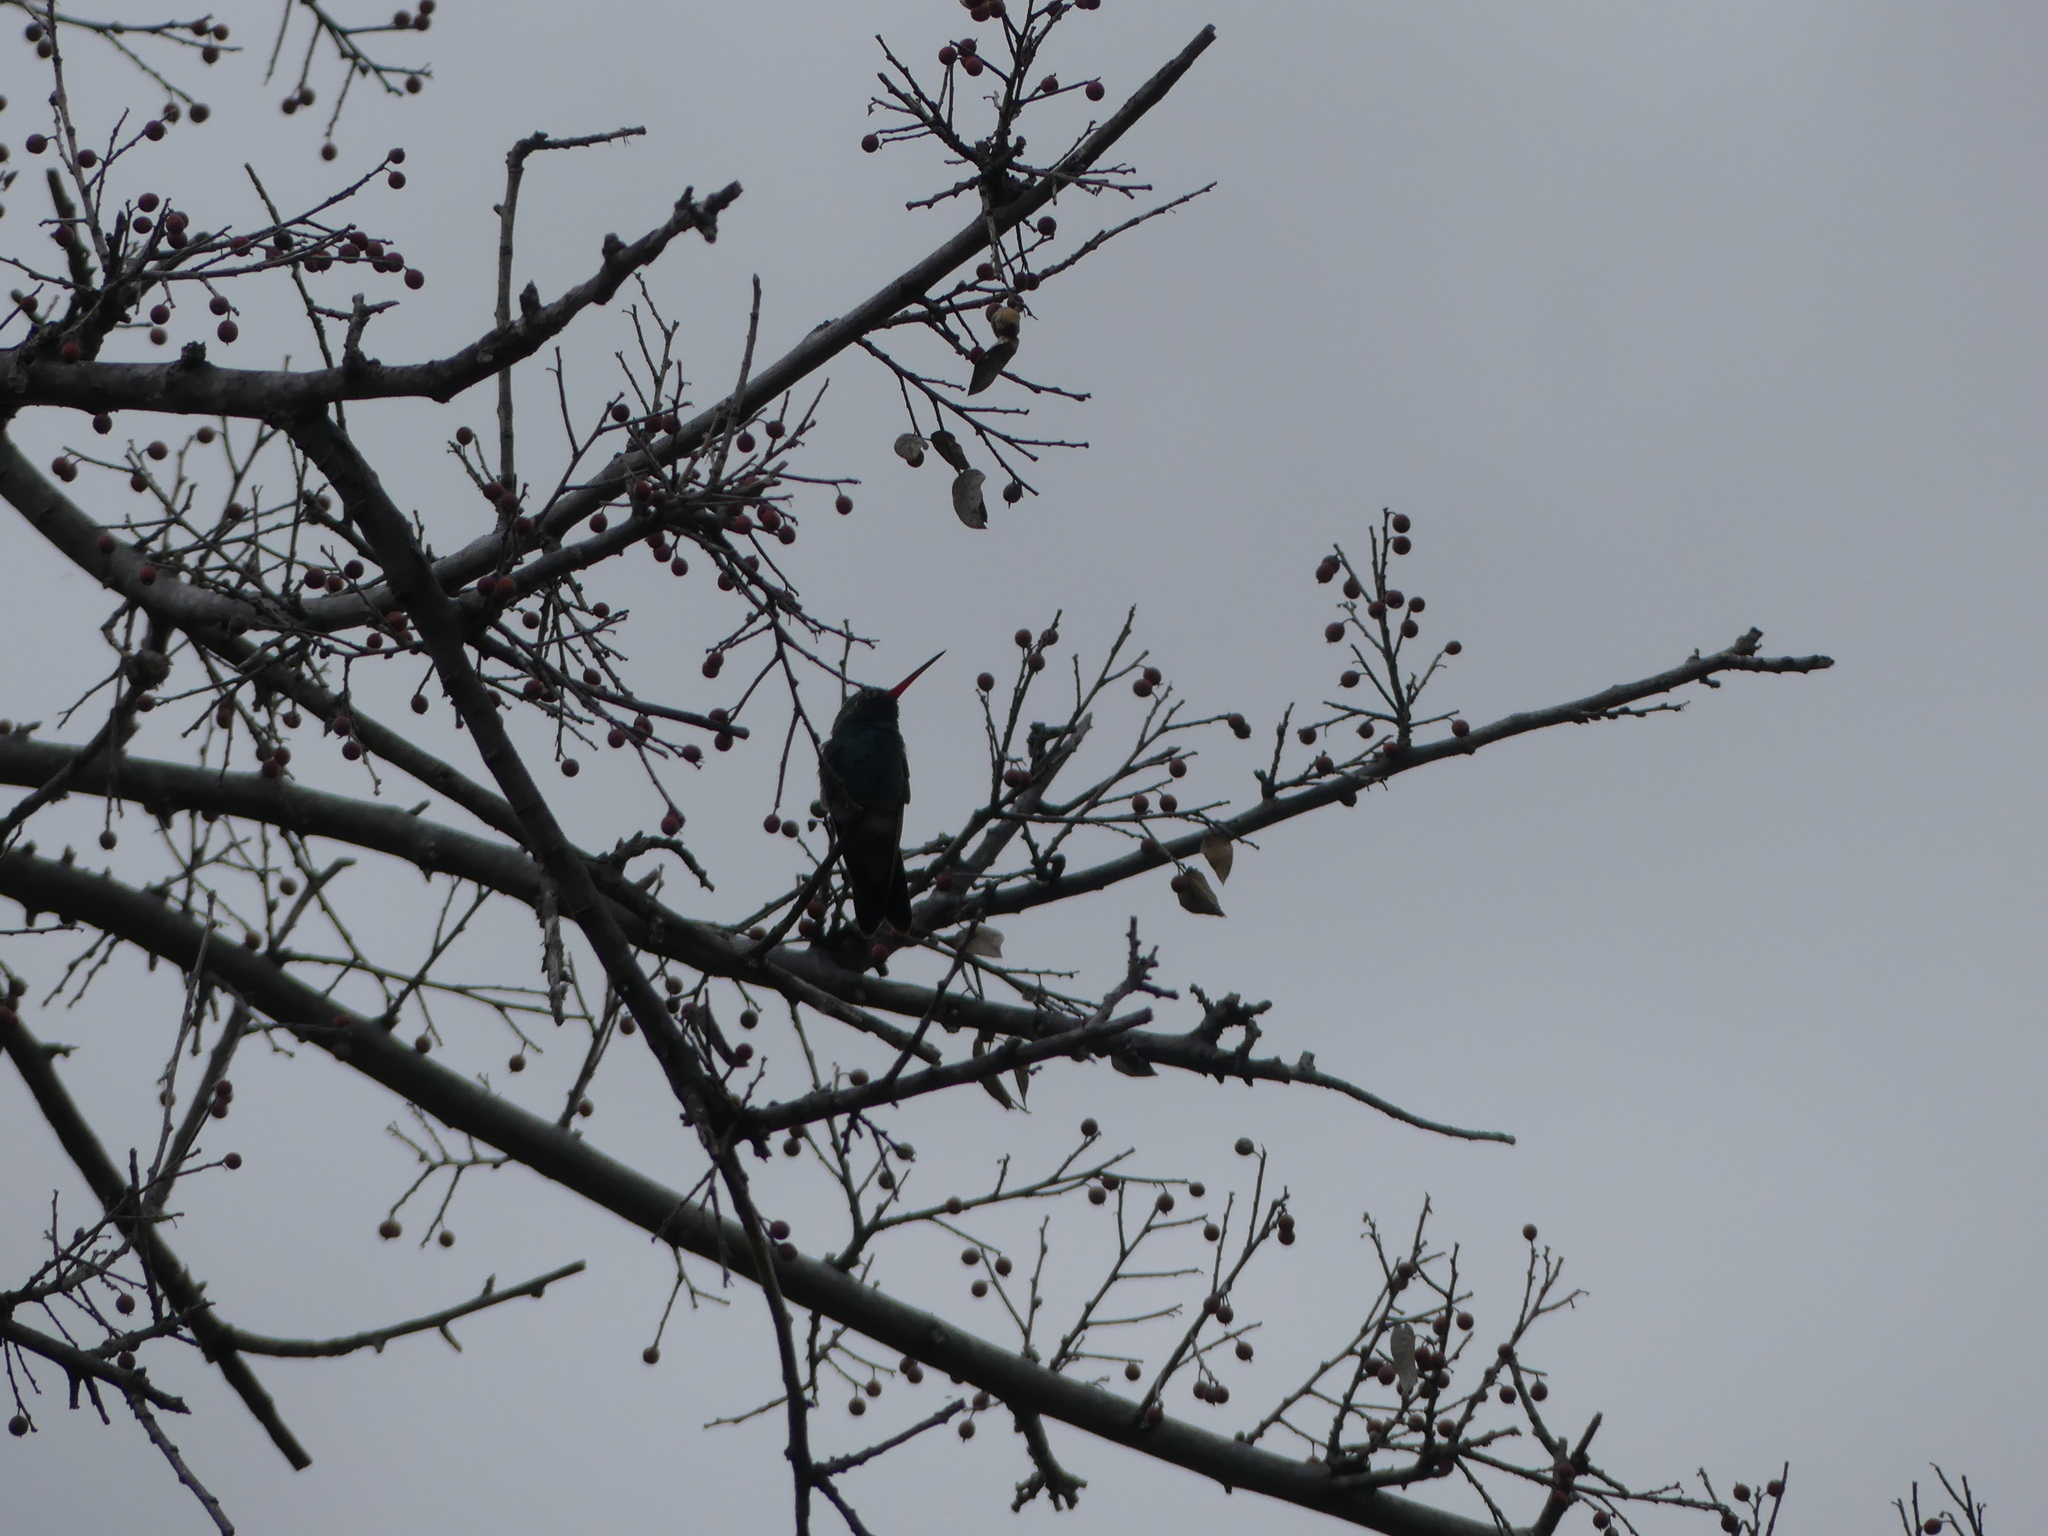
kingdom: Animalia
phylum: Chordata
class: Aves
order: Apodiformes
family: Trochilidae
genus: Cynanthus
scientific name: Cynanthus latirostris
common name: Broad-billed hummingbird
